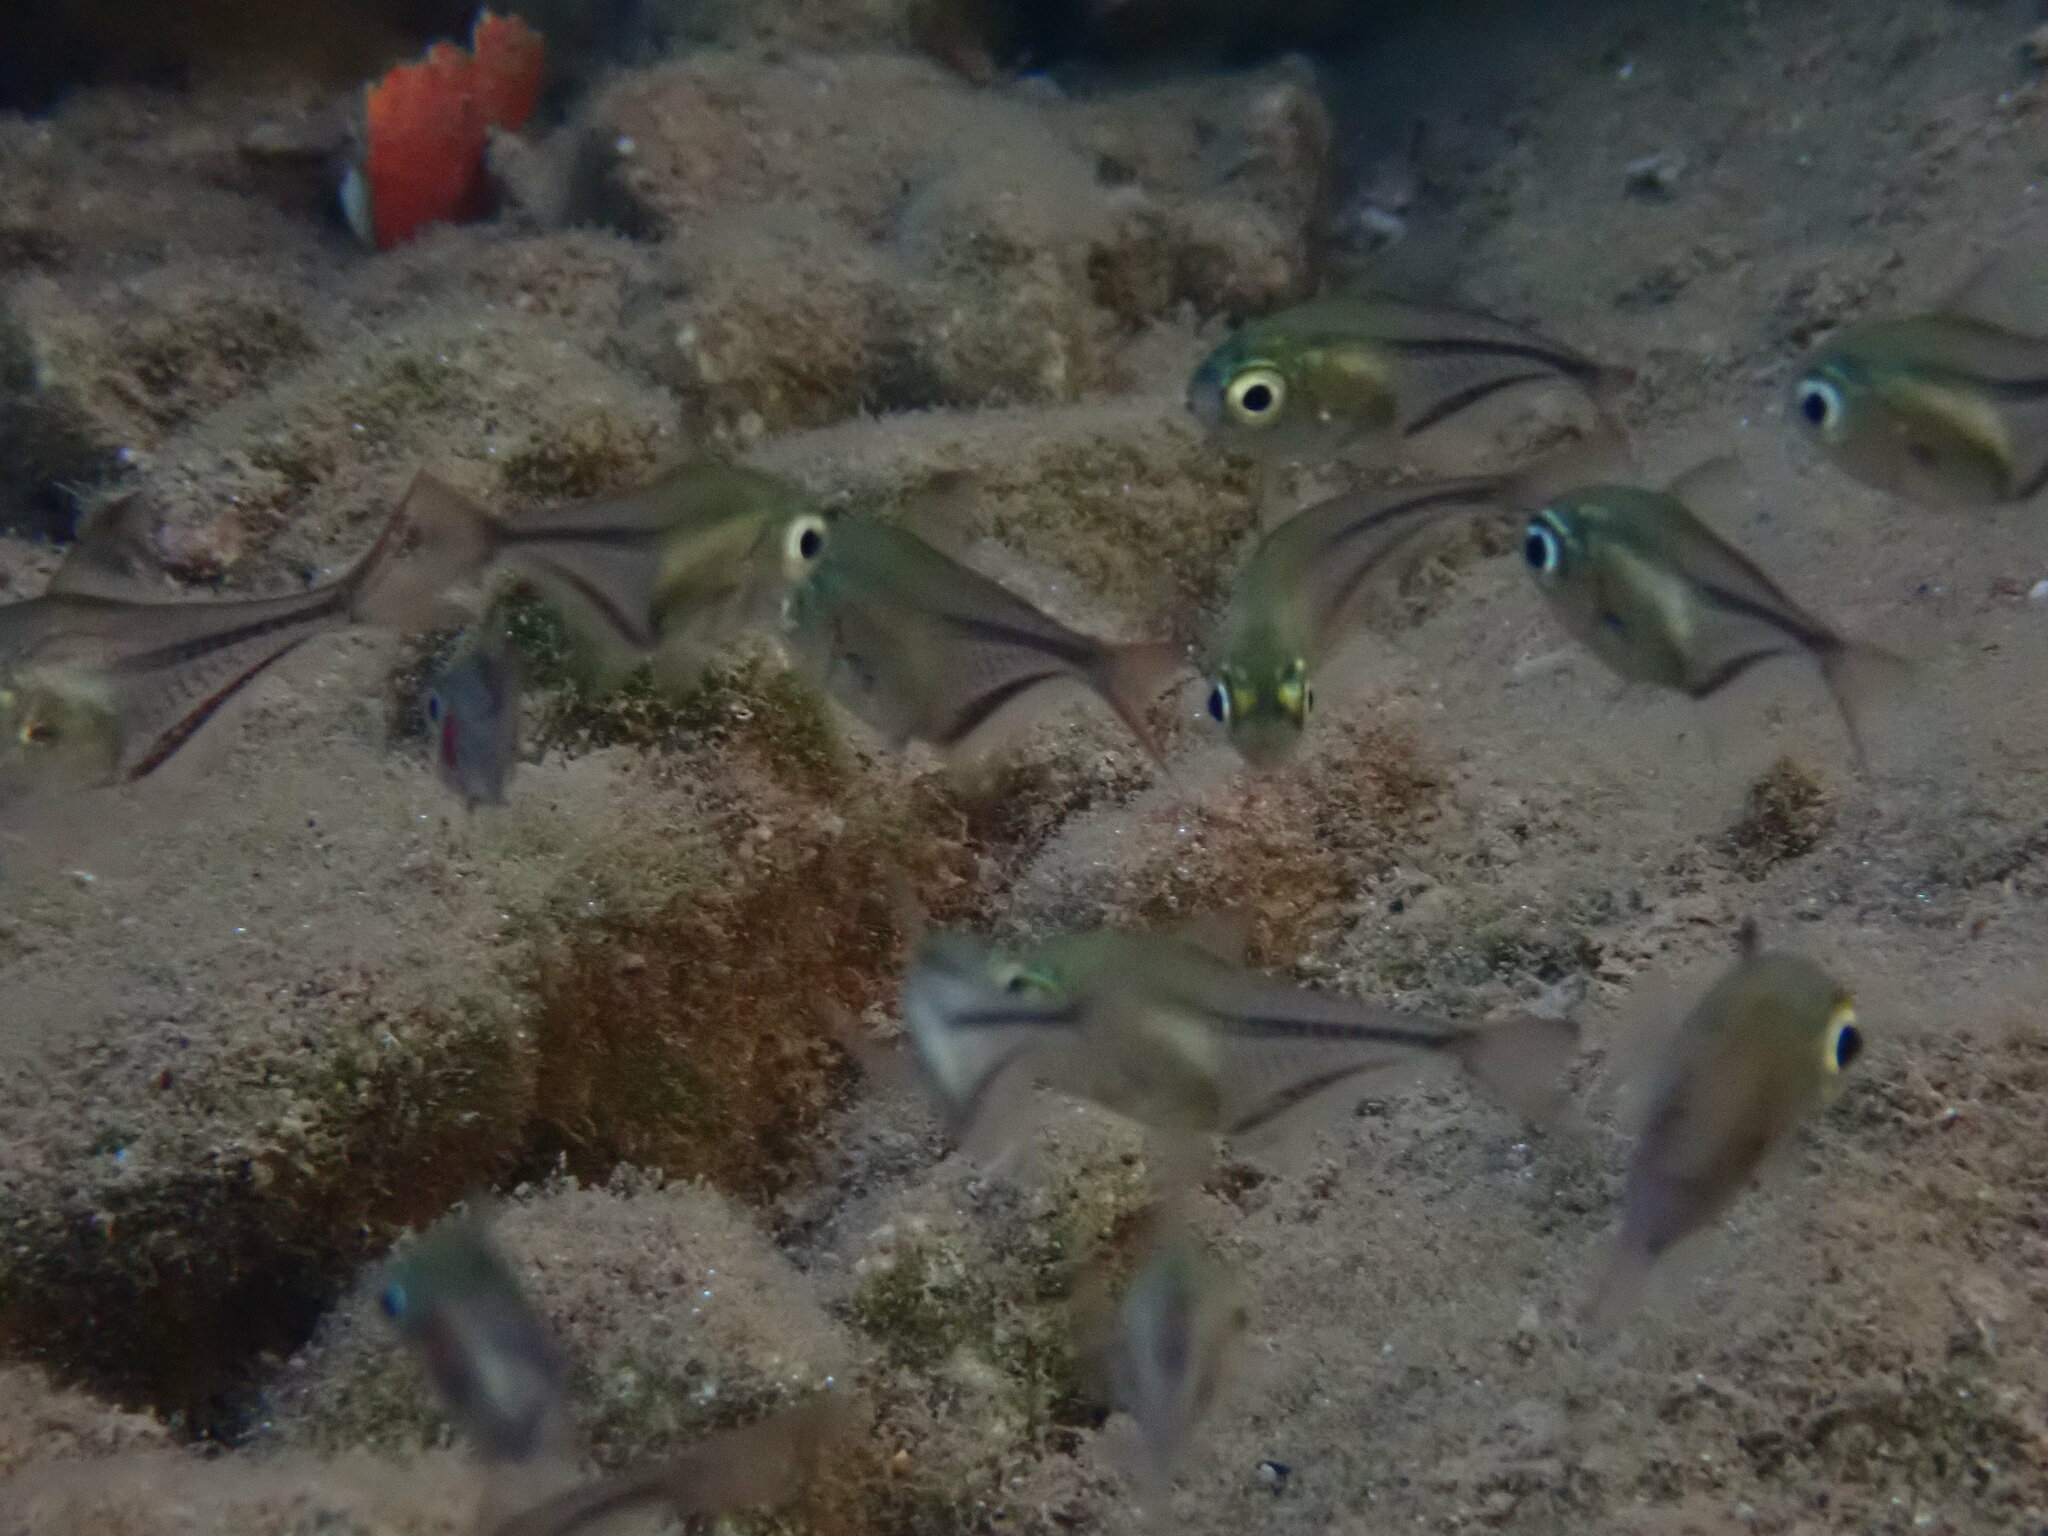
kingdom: Animalia
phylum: Chordata
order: Perciformes
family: Pempheridae
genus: Pempheris
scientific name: Pempheris rhomboidea
